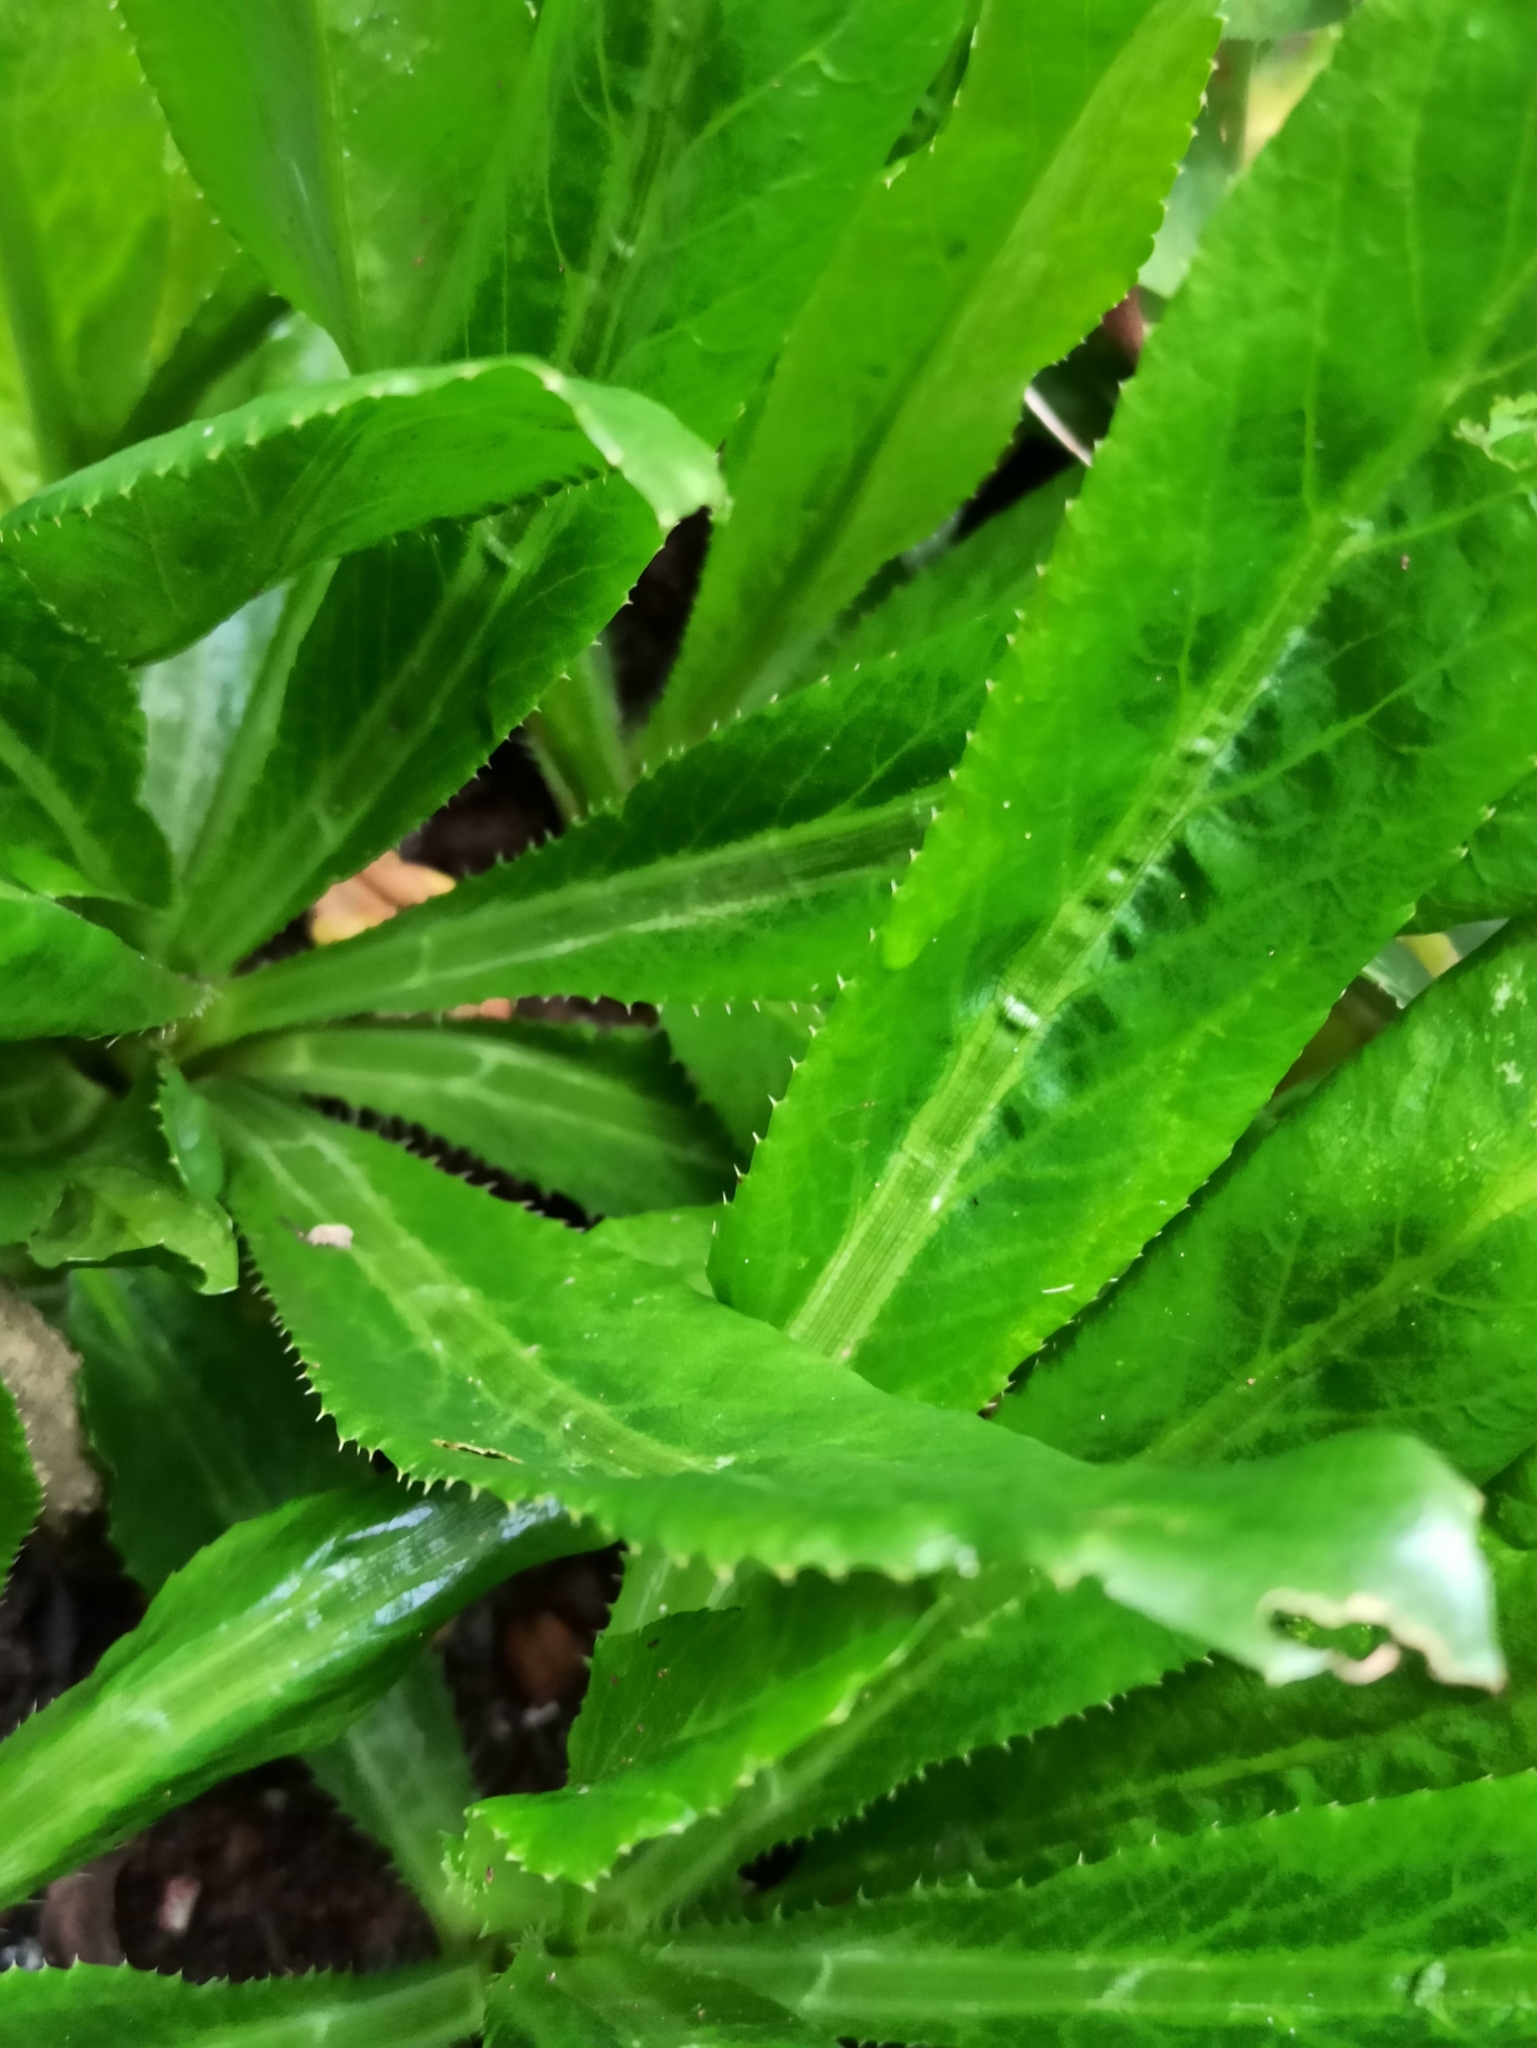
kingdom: Plantae
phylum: Tracheophyta
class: Magnoliopsida
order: Apiales
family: Apiaceae
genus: Eryngium
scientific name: Eryngium foetidum
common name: Fitweed
